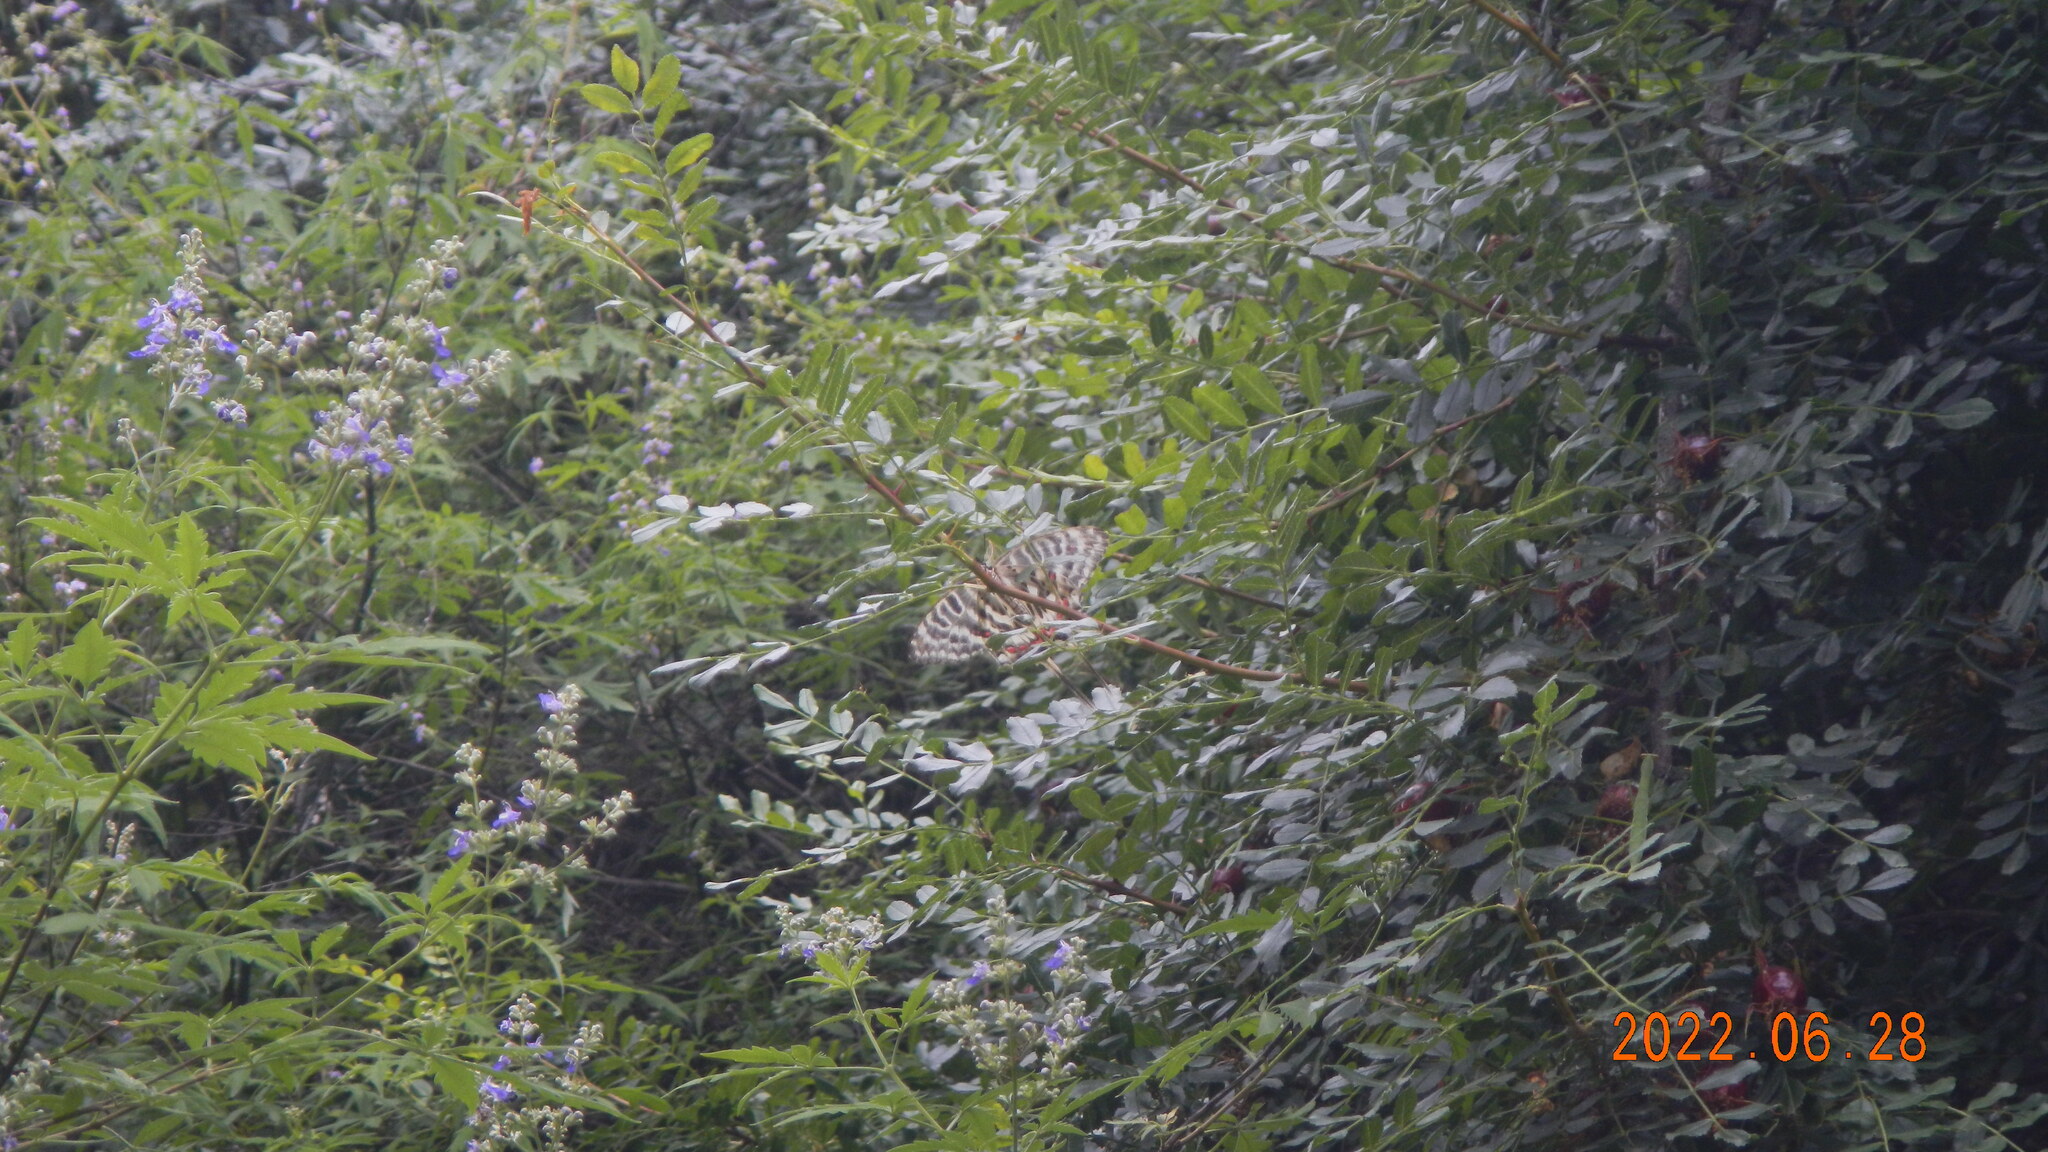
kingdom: Animalia
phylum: Arthropoda
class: Insecta
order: Lepidoptera
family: Papilionidae
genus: Sericinus
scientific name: Sericinus montela
